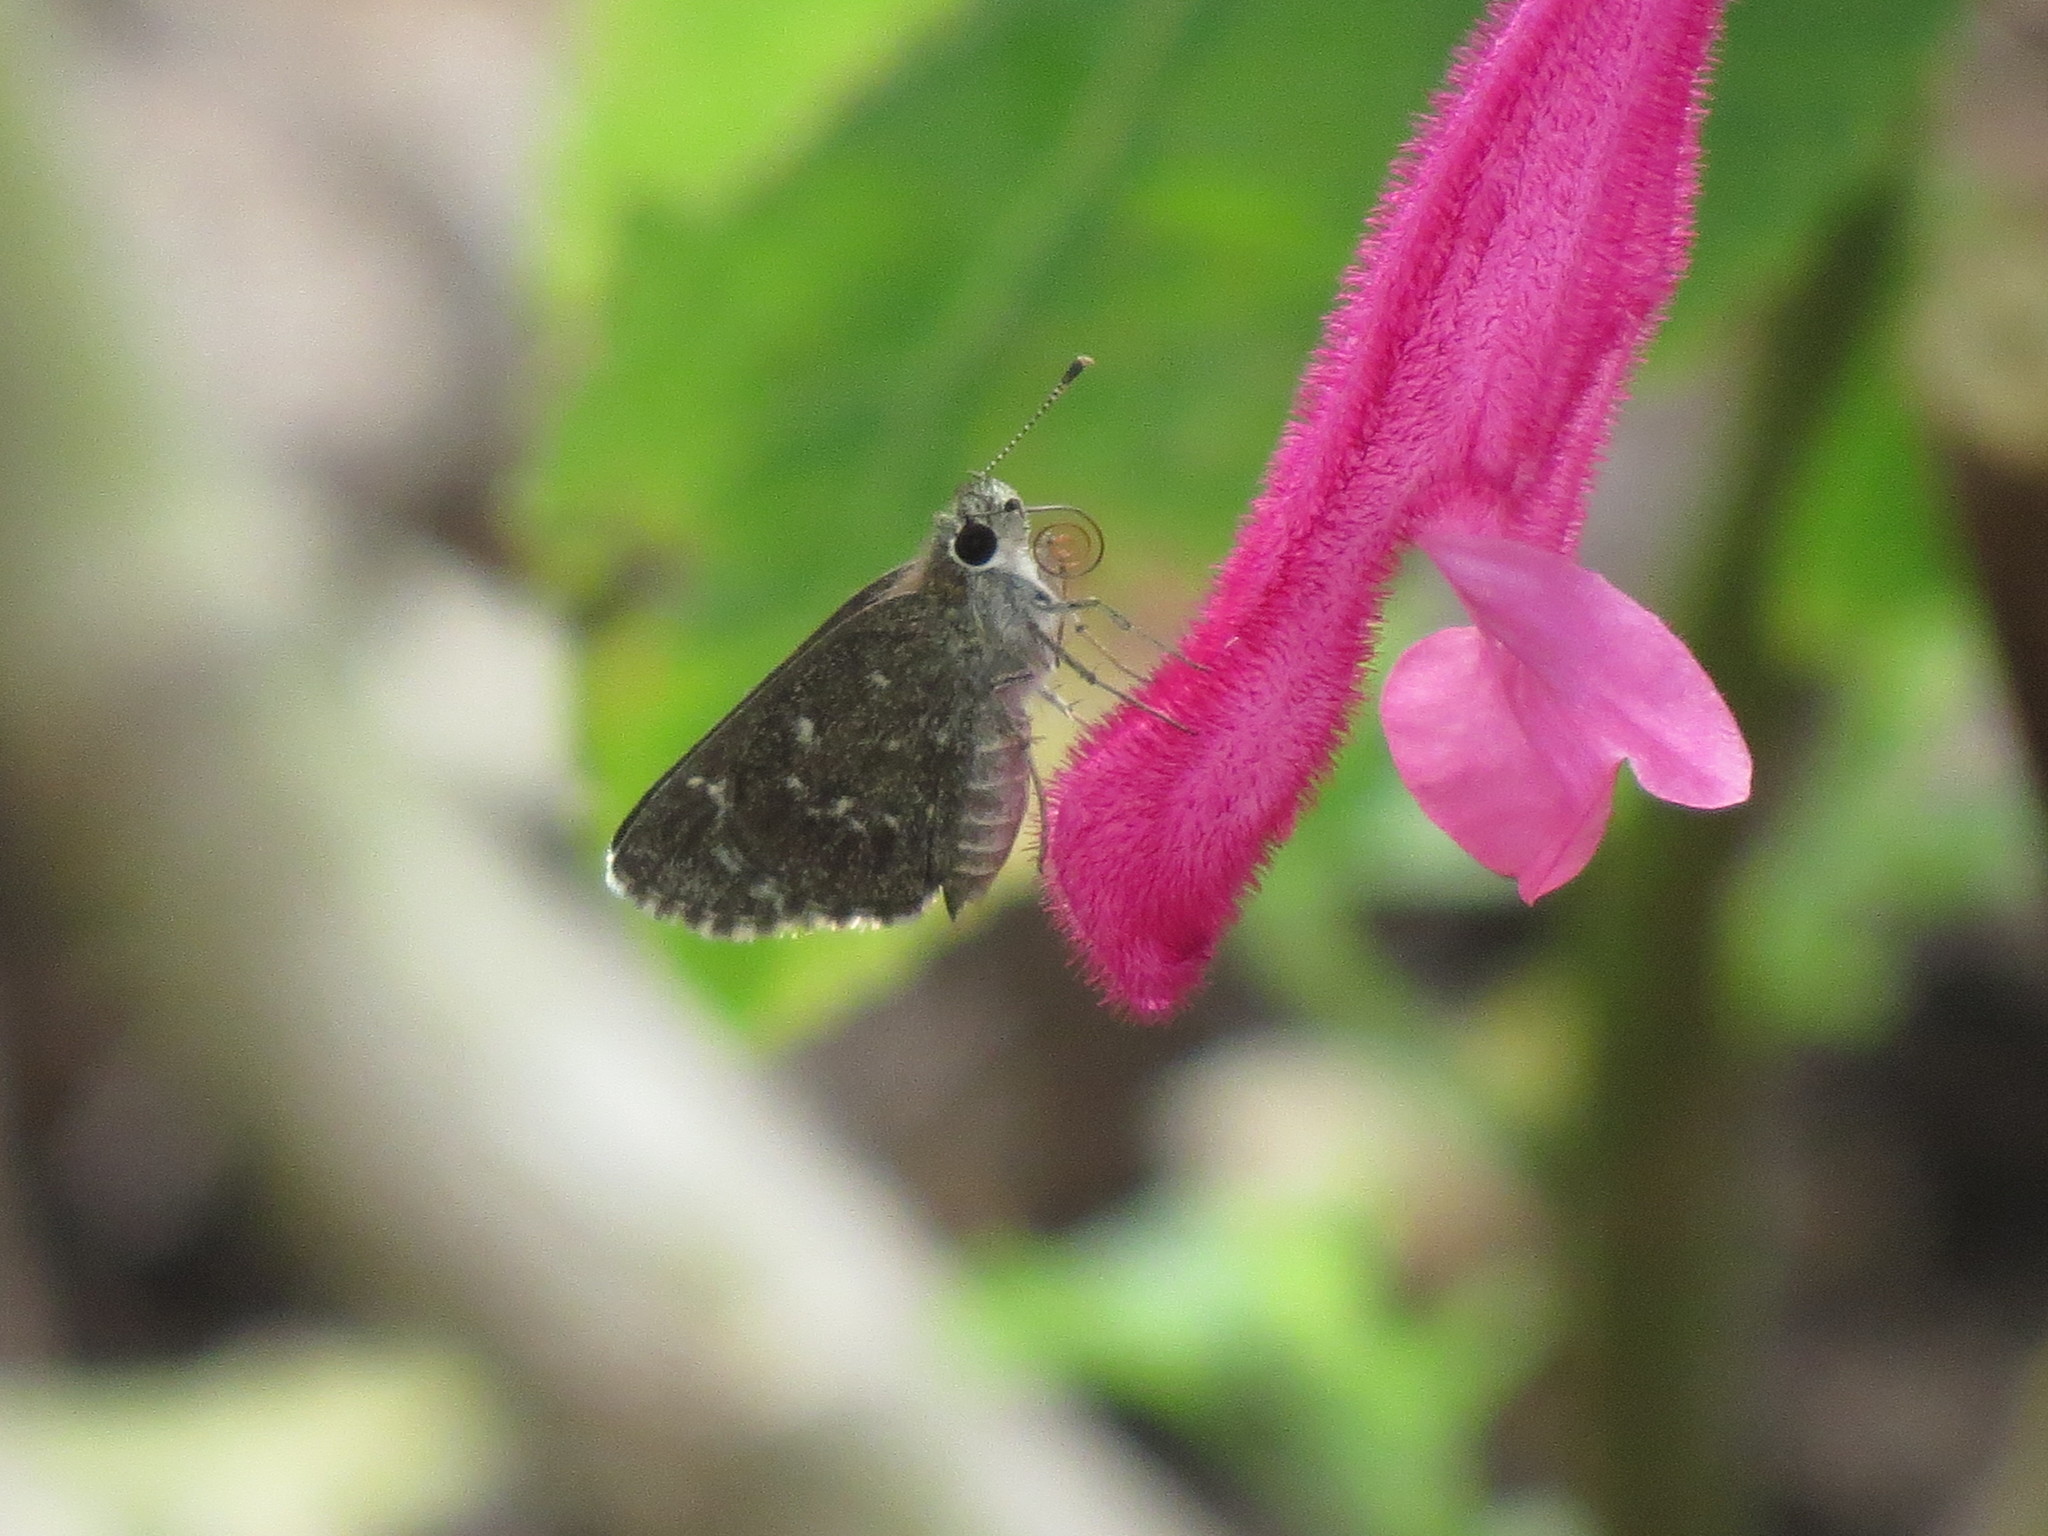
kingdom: Animalia
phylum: Arthropoda
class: Insecta
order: Lepidoptera
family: Hesperiidae
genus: Mastor
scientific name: Mastor celia
